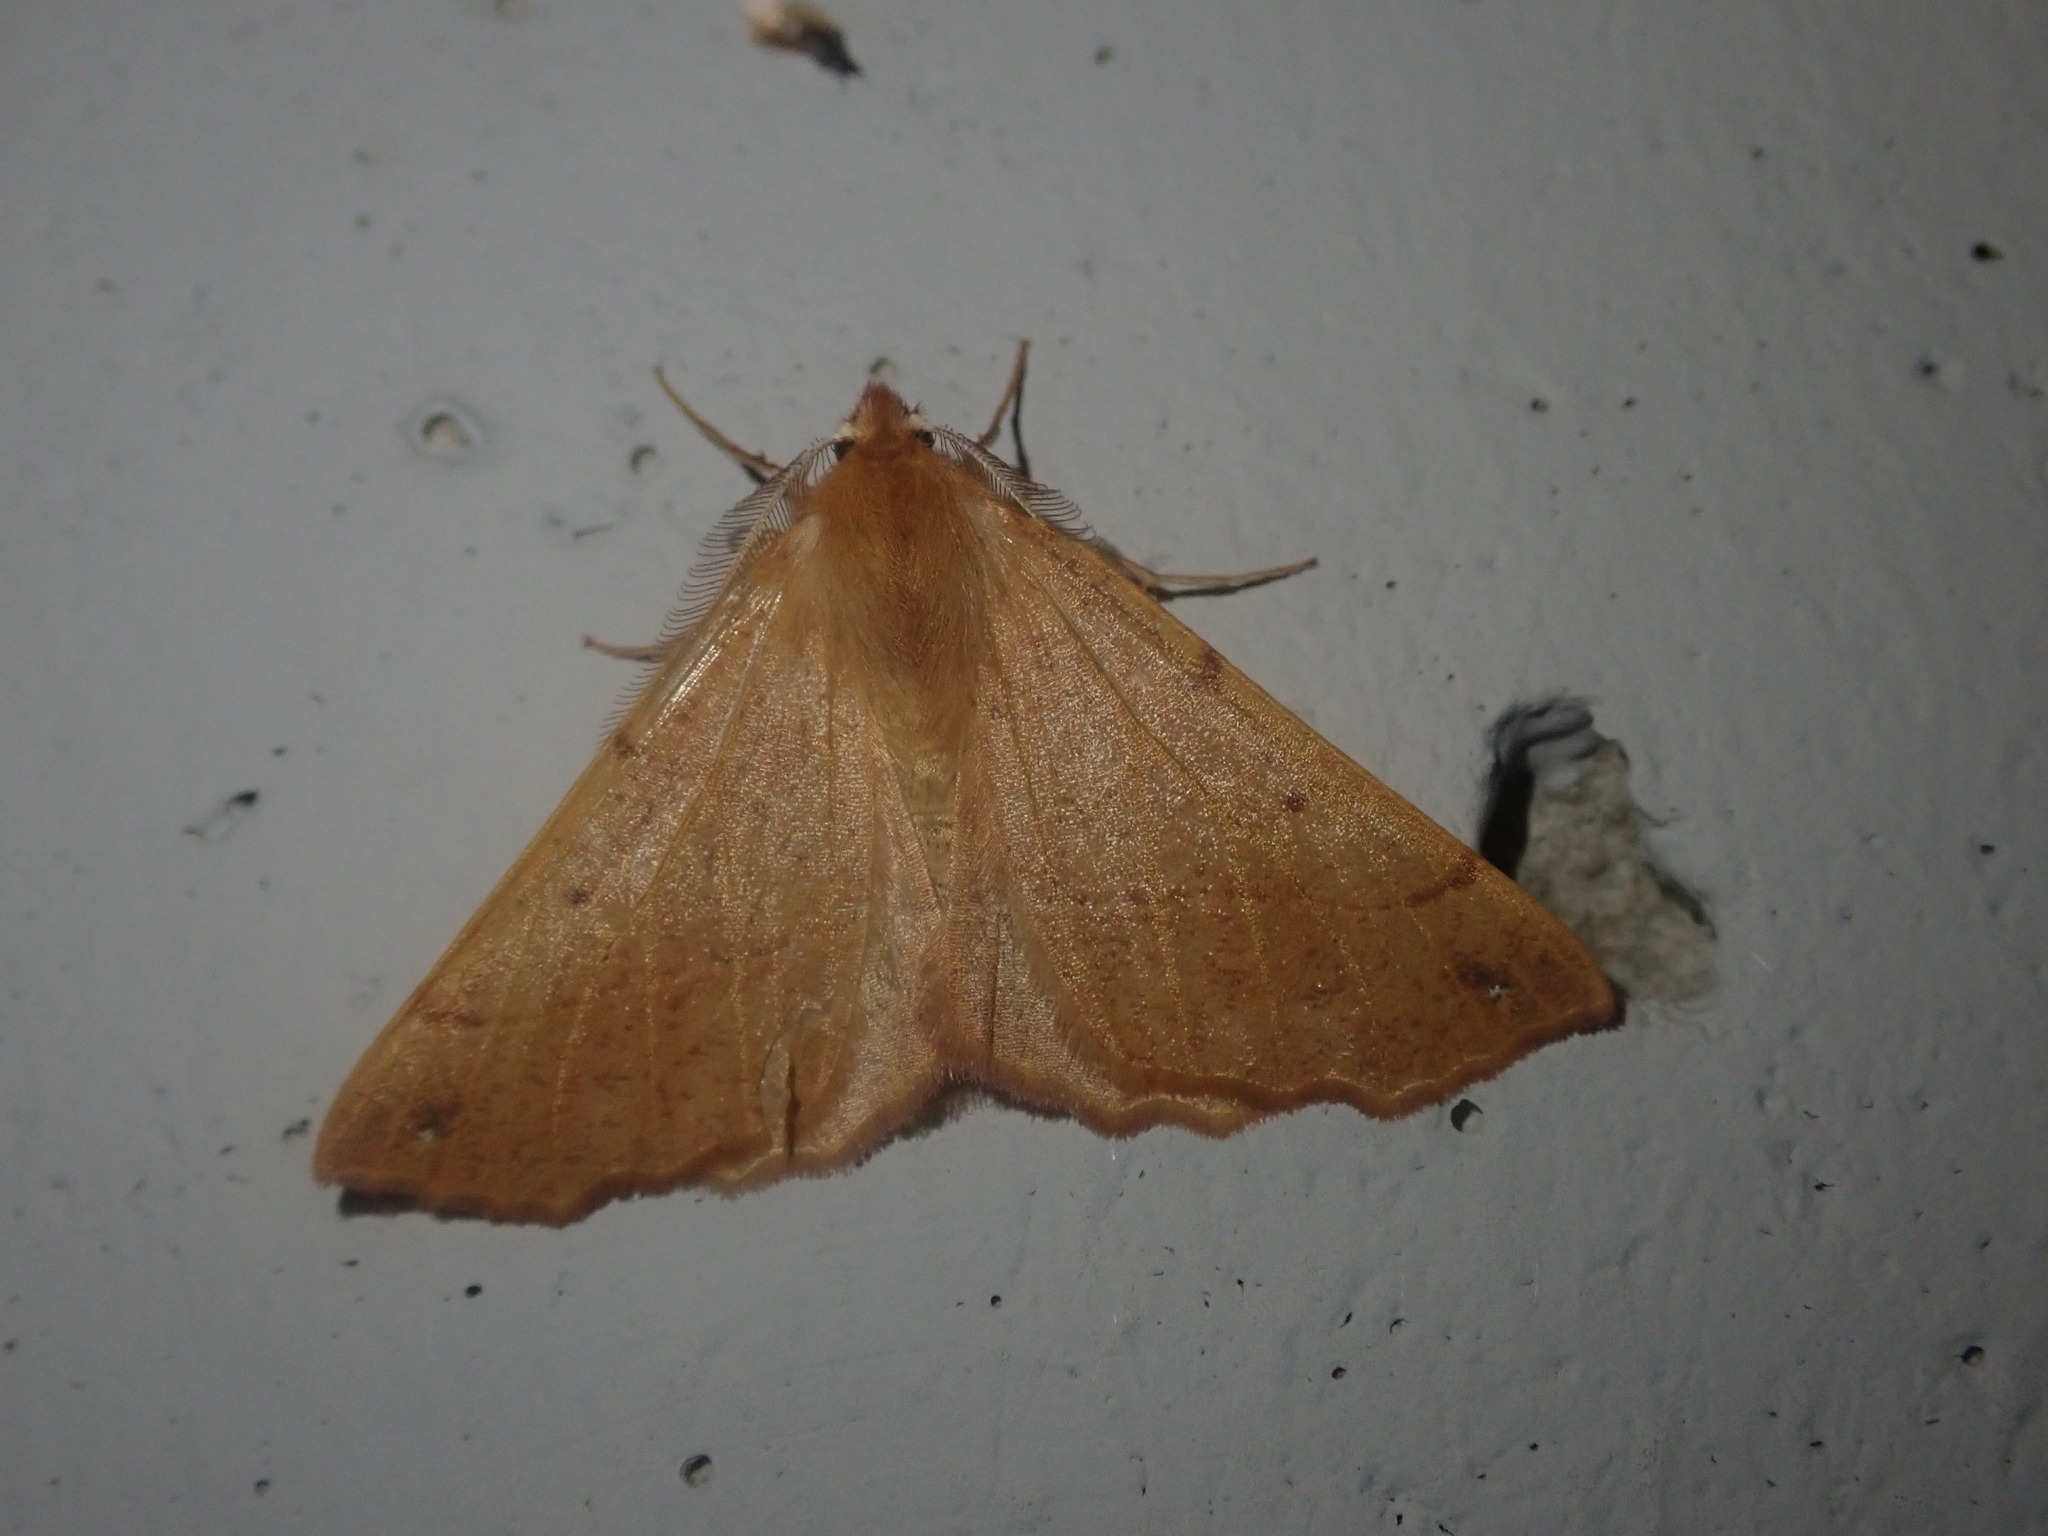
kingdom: Animalia
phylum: Arthropoda
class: Insecta
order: Lepidoptera
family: Geometridae
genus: Colotois
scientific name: Colotois pennaria
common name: Feathered thorn
